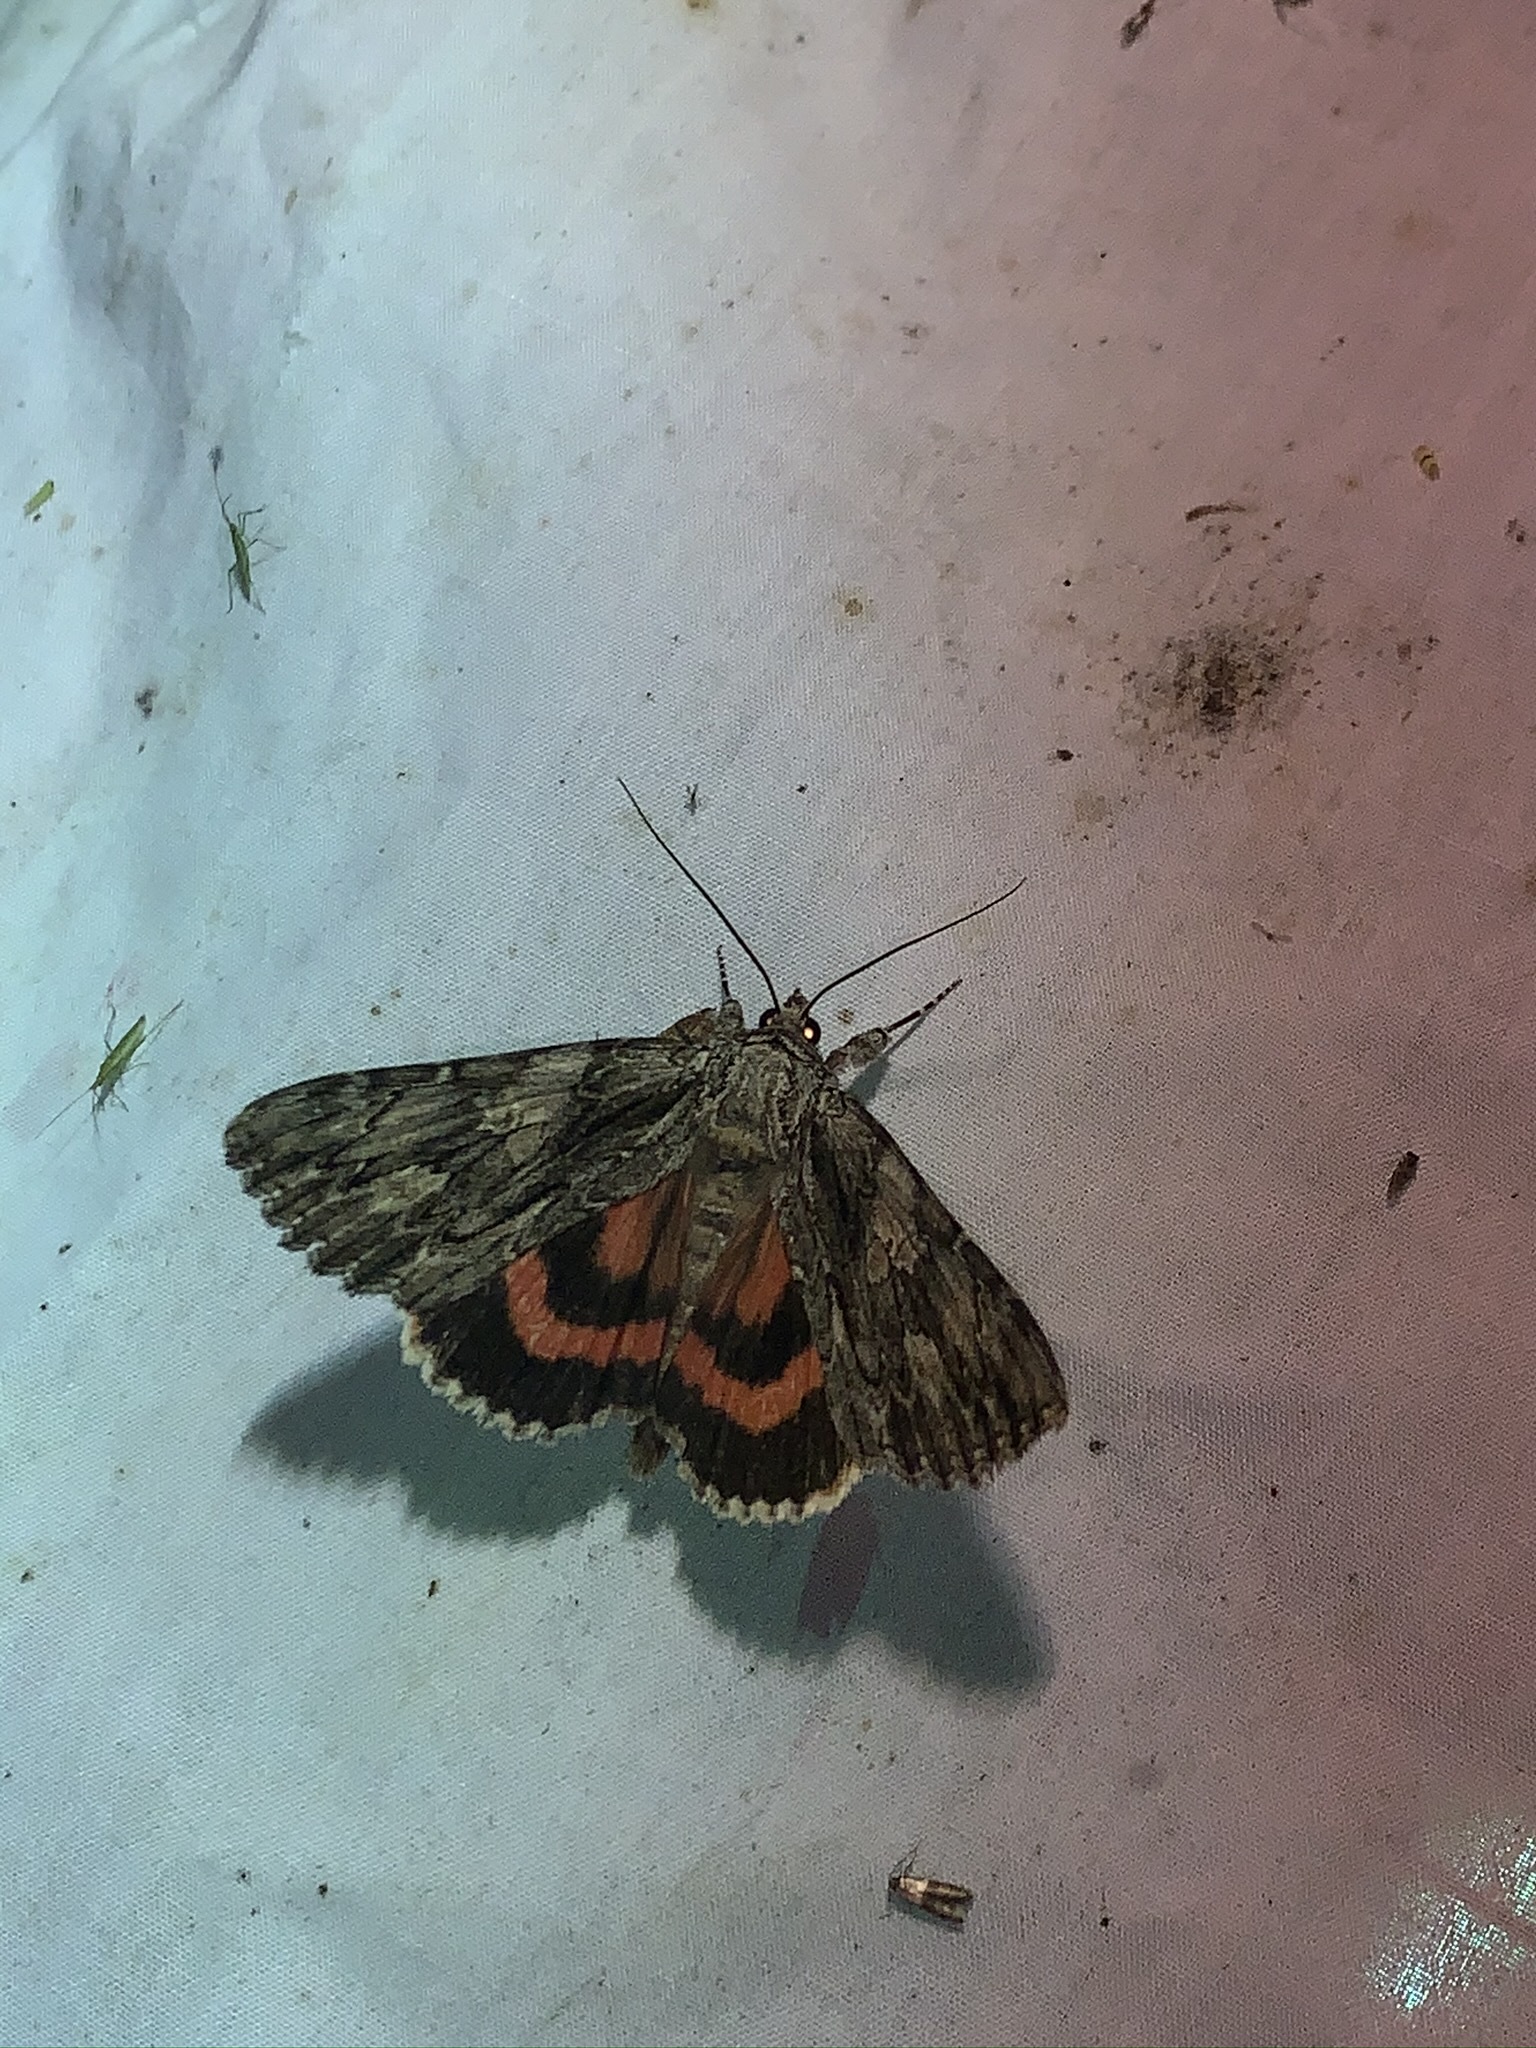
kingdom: Animalia
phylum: Arthropoda
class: Insecta
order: Lepidoptera
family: Erebidae
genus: Catocala
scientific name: Catocala coccinata
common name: Scarlet underwing
